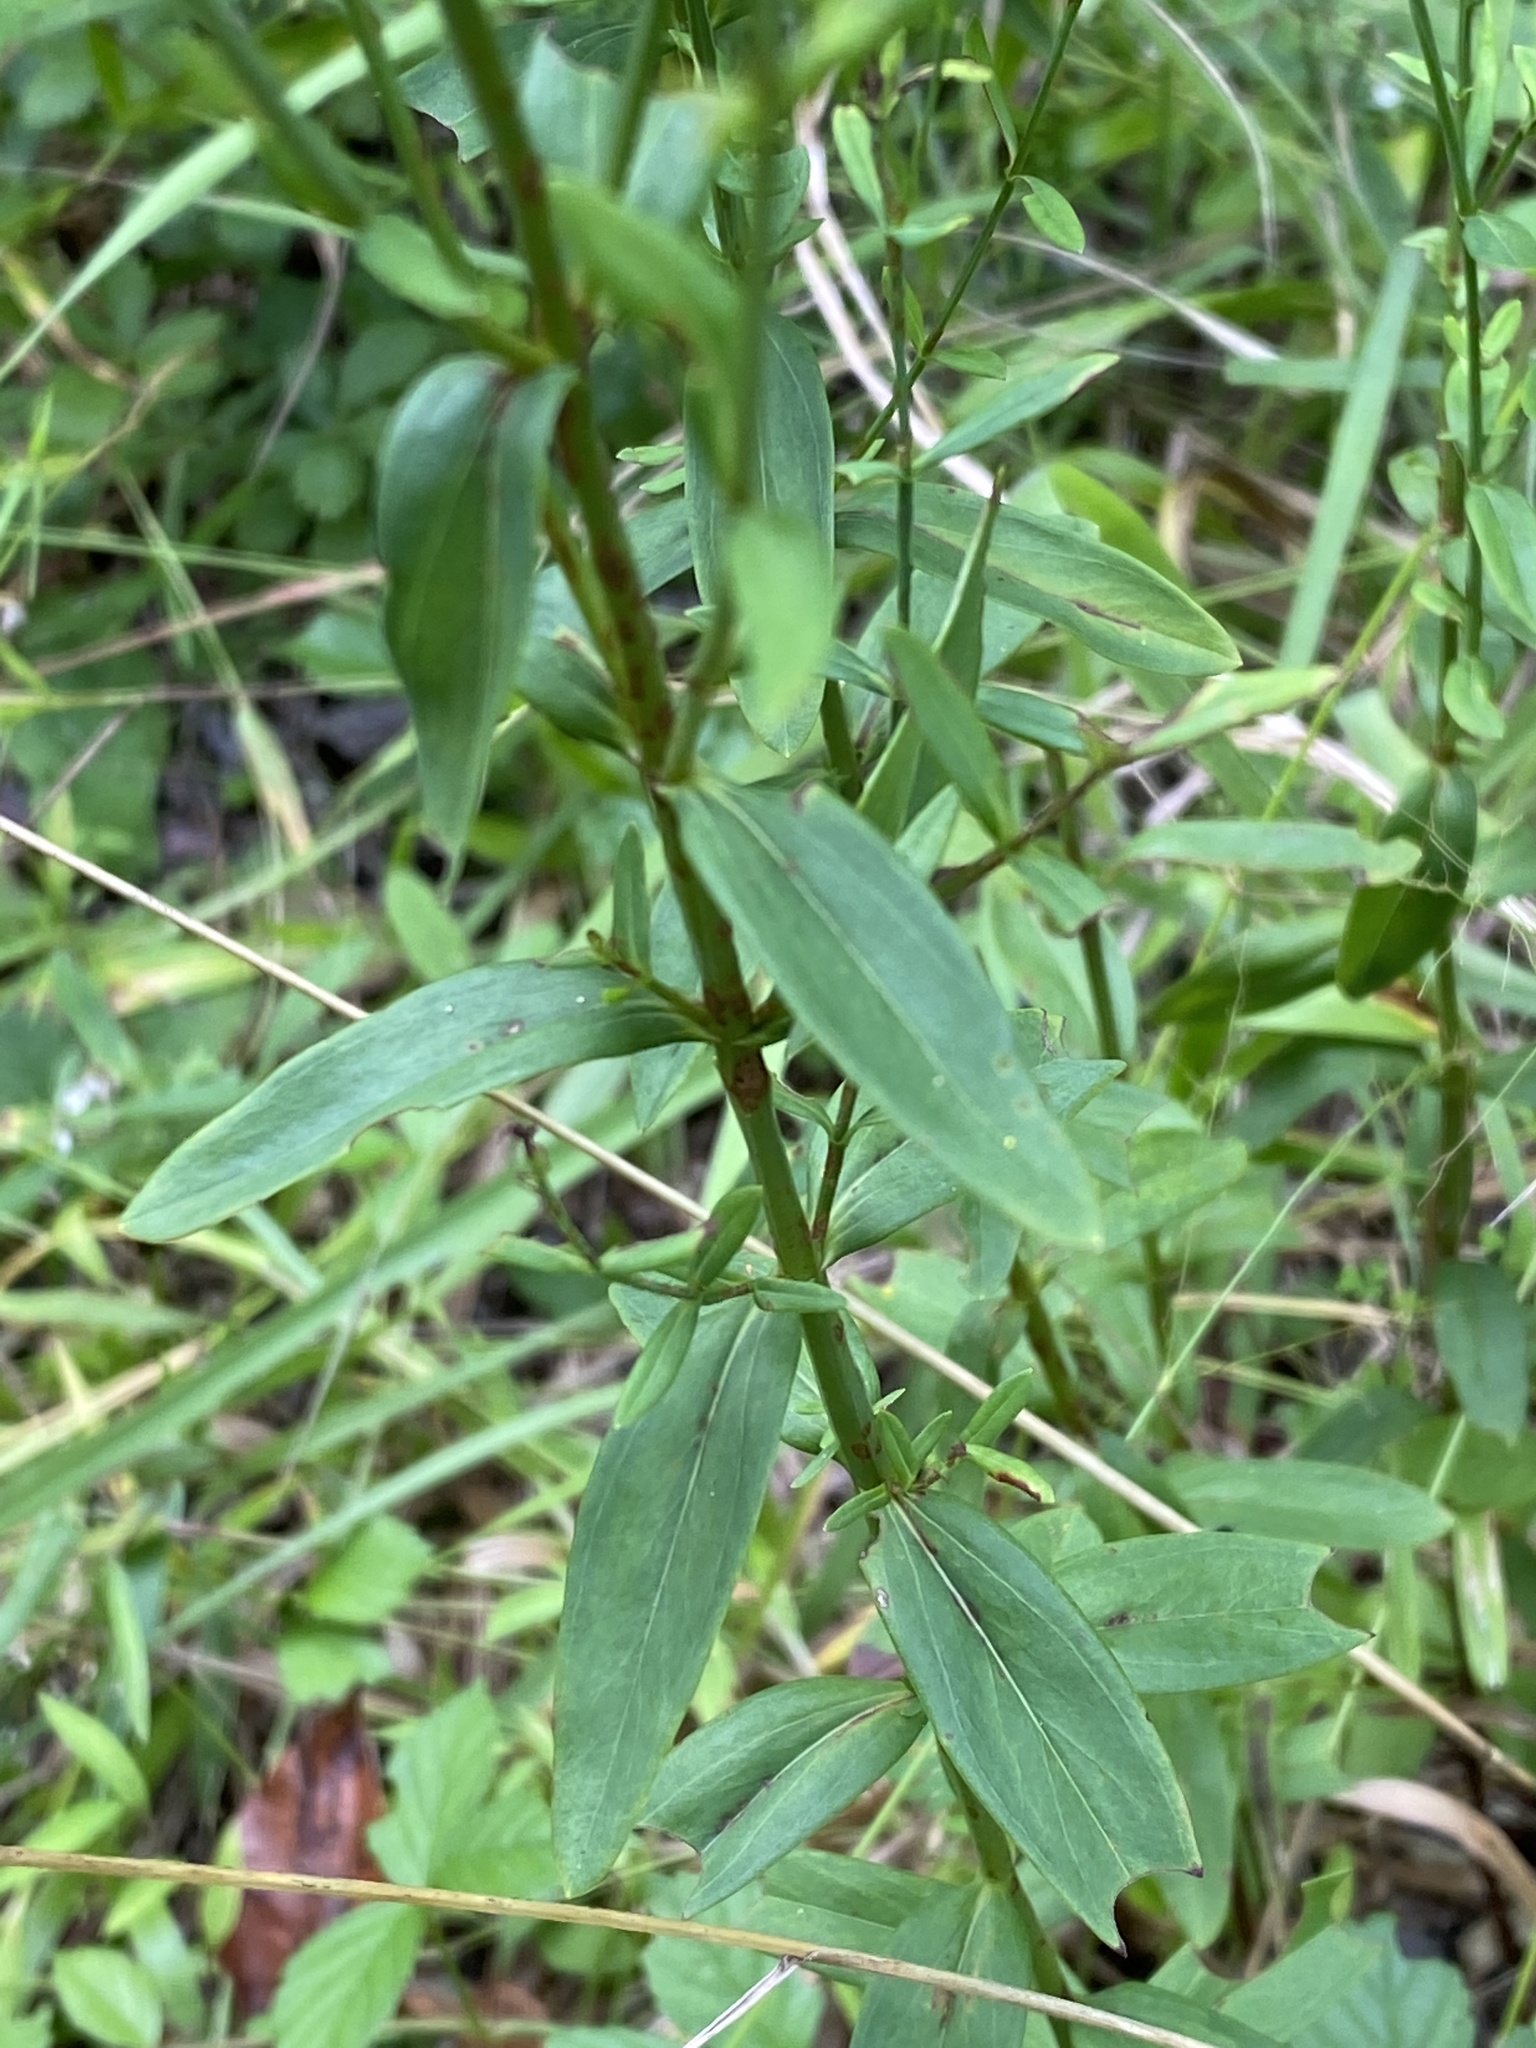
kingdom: Plantae
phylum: Tracheophyta
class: Magnoliopsida
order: Malpighiales
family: Hypericaceae
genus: Hypericum
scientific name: Hypericum virgatum
